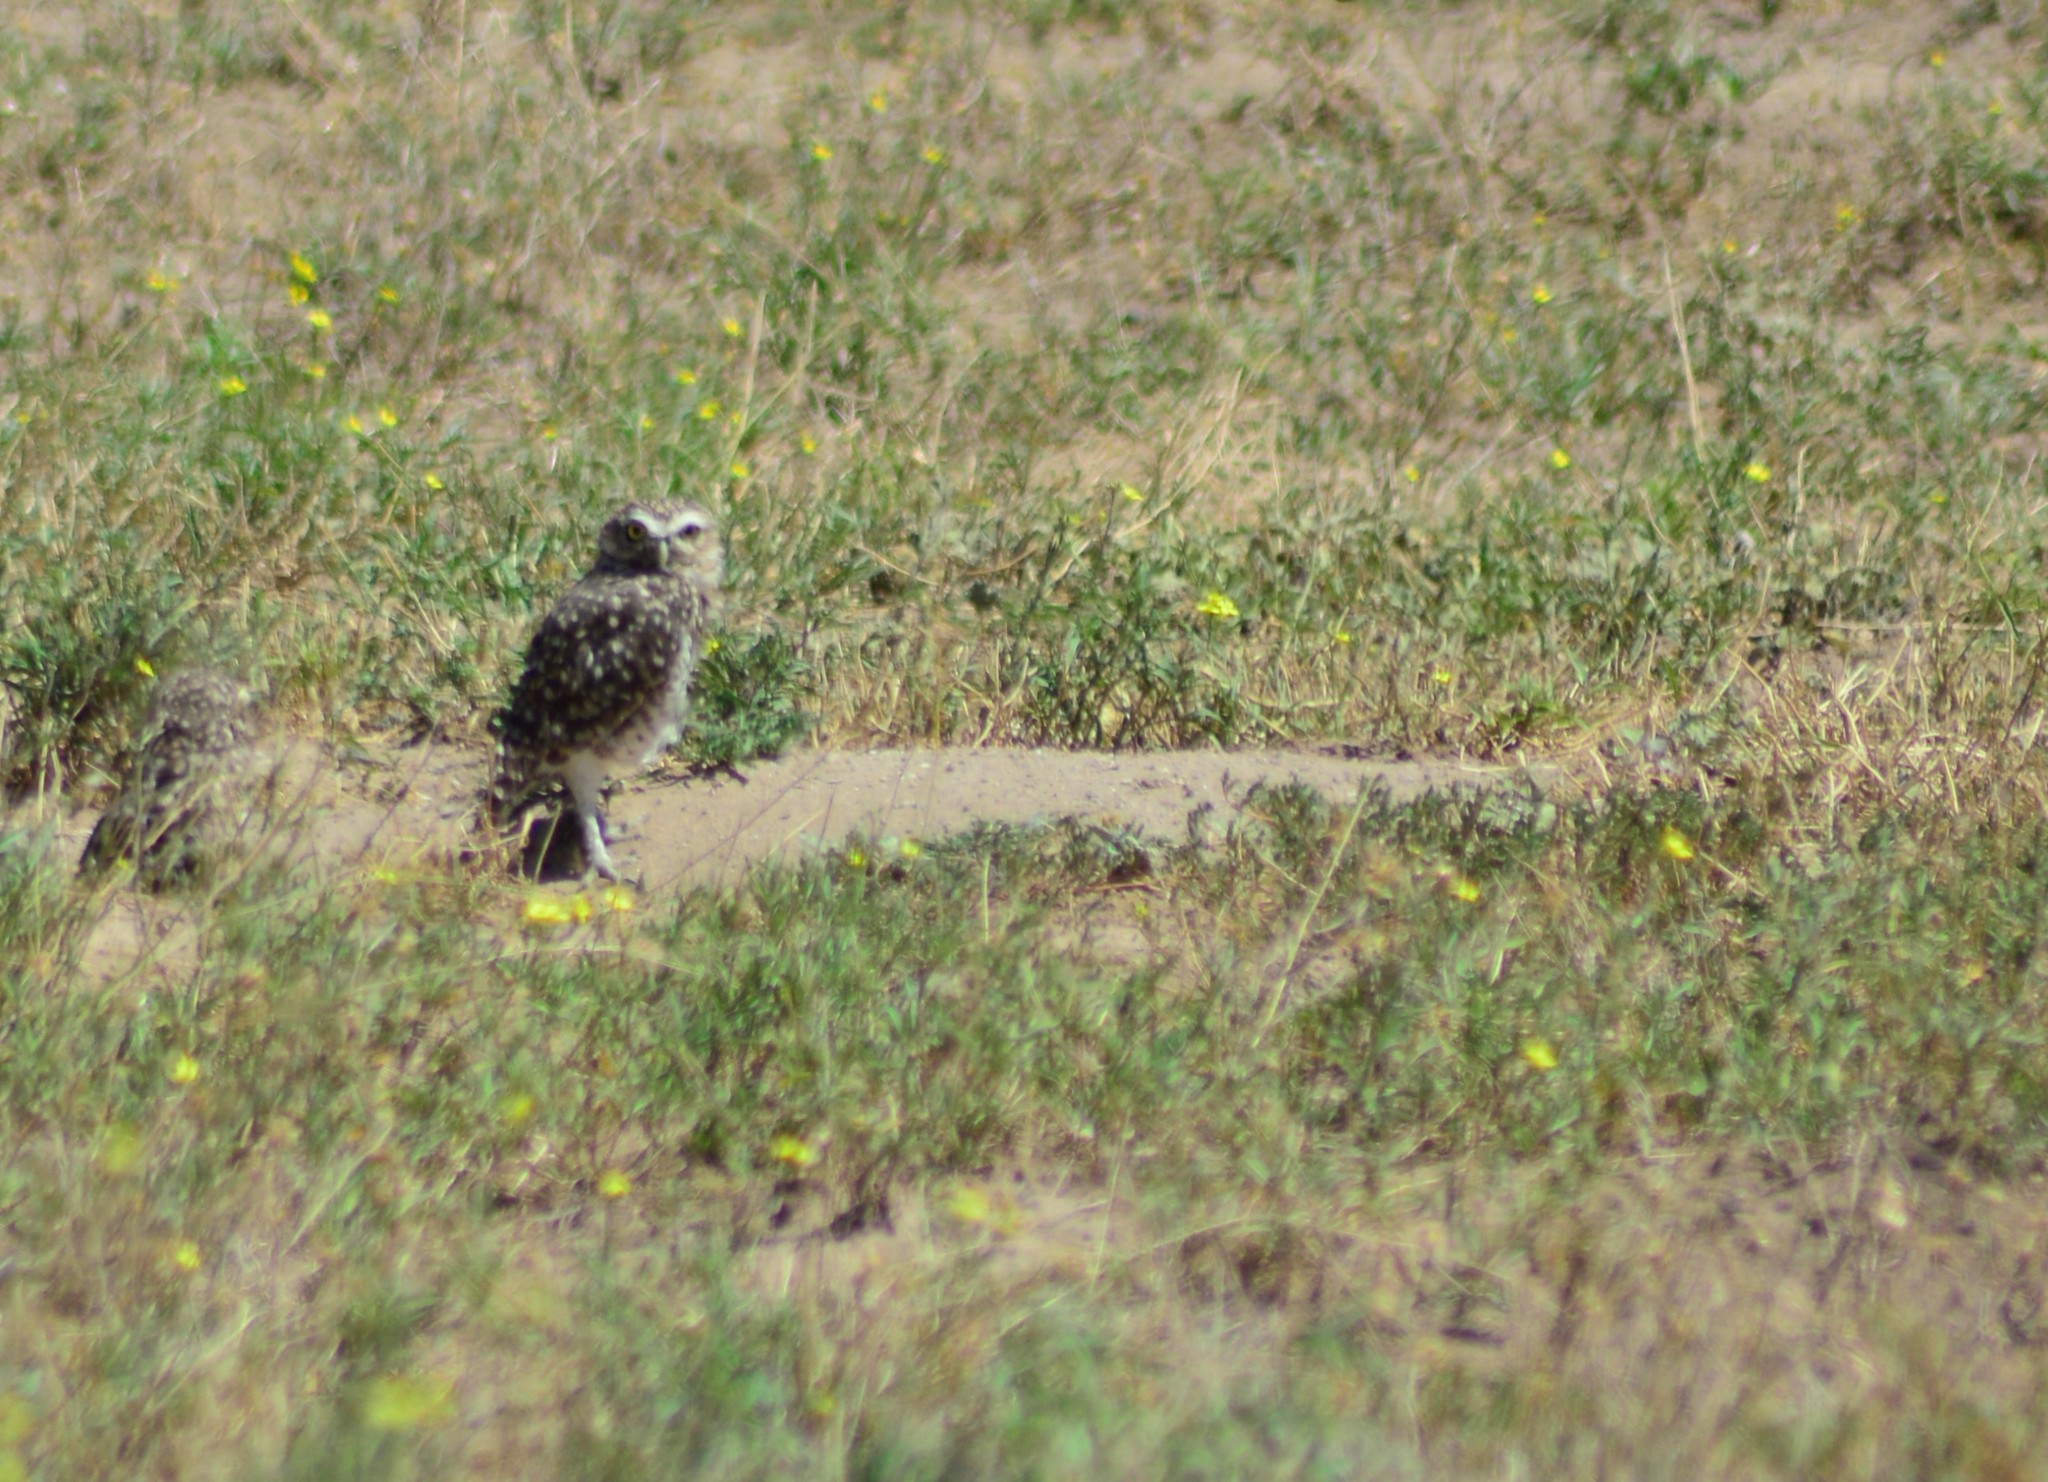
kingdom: Animalia
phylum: Chordata
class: Aves
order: Strigiformes
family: Strigidae
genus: Athene
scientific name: Athene cunicularia
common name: Burrowing owl
